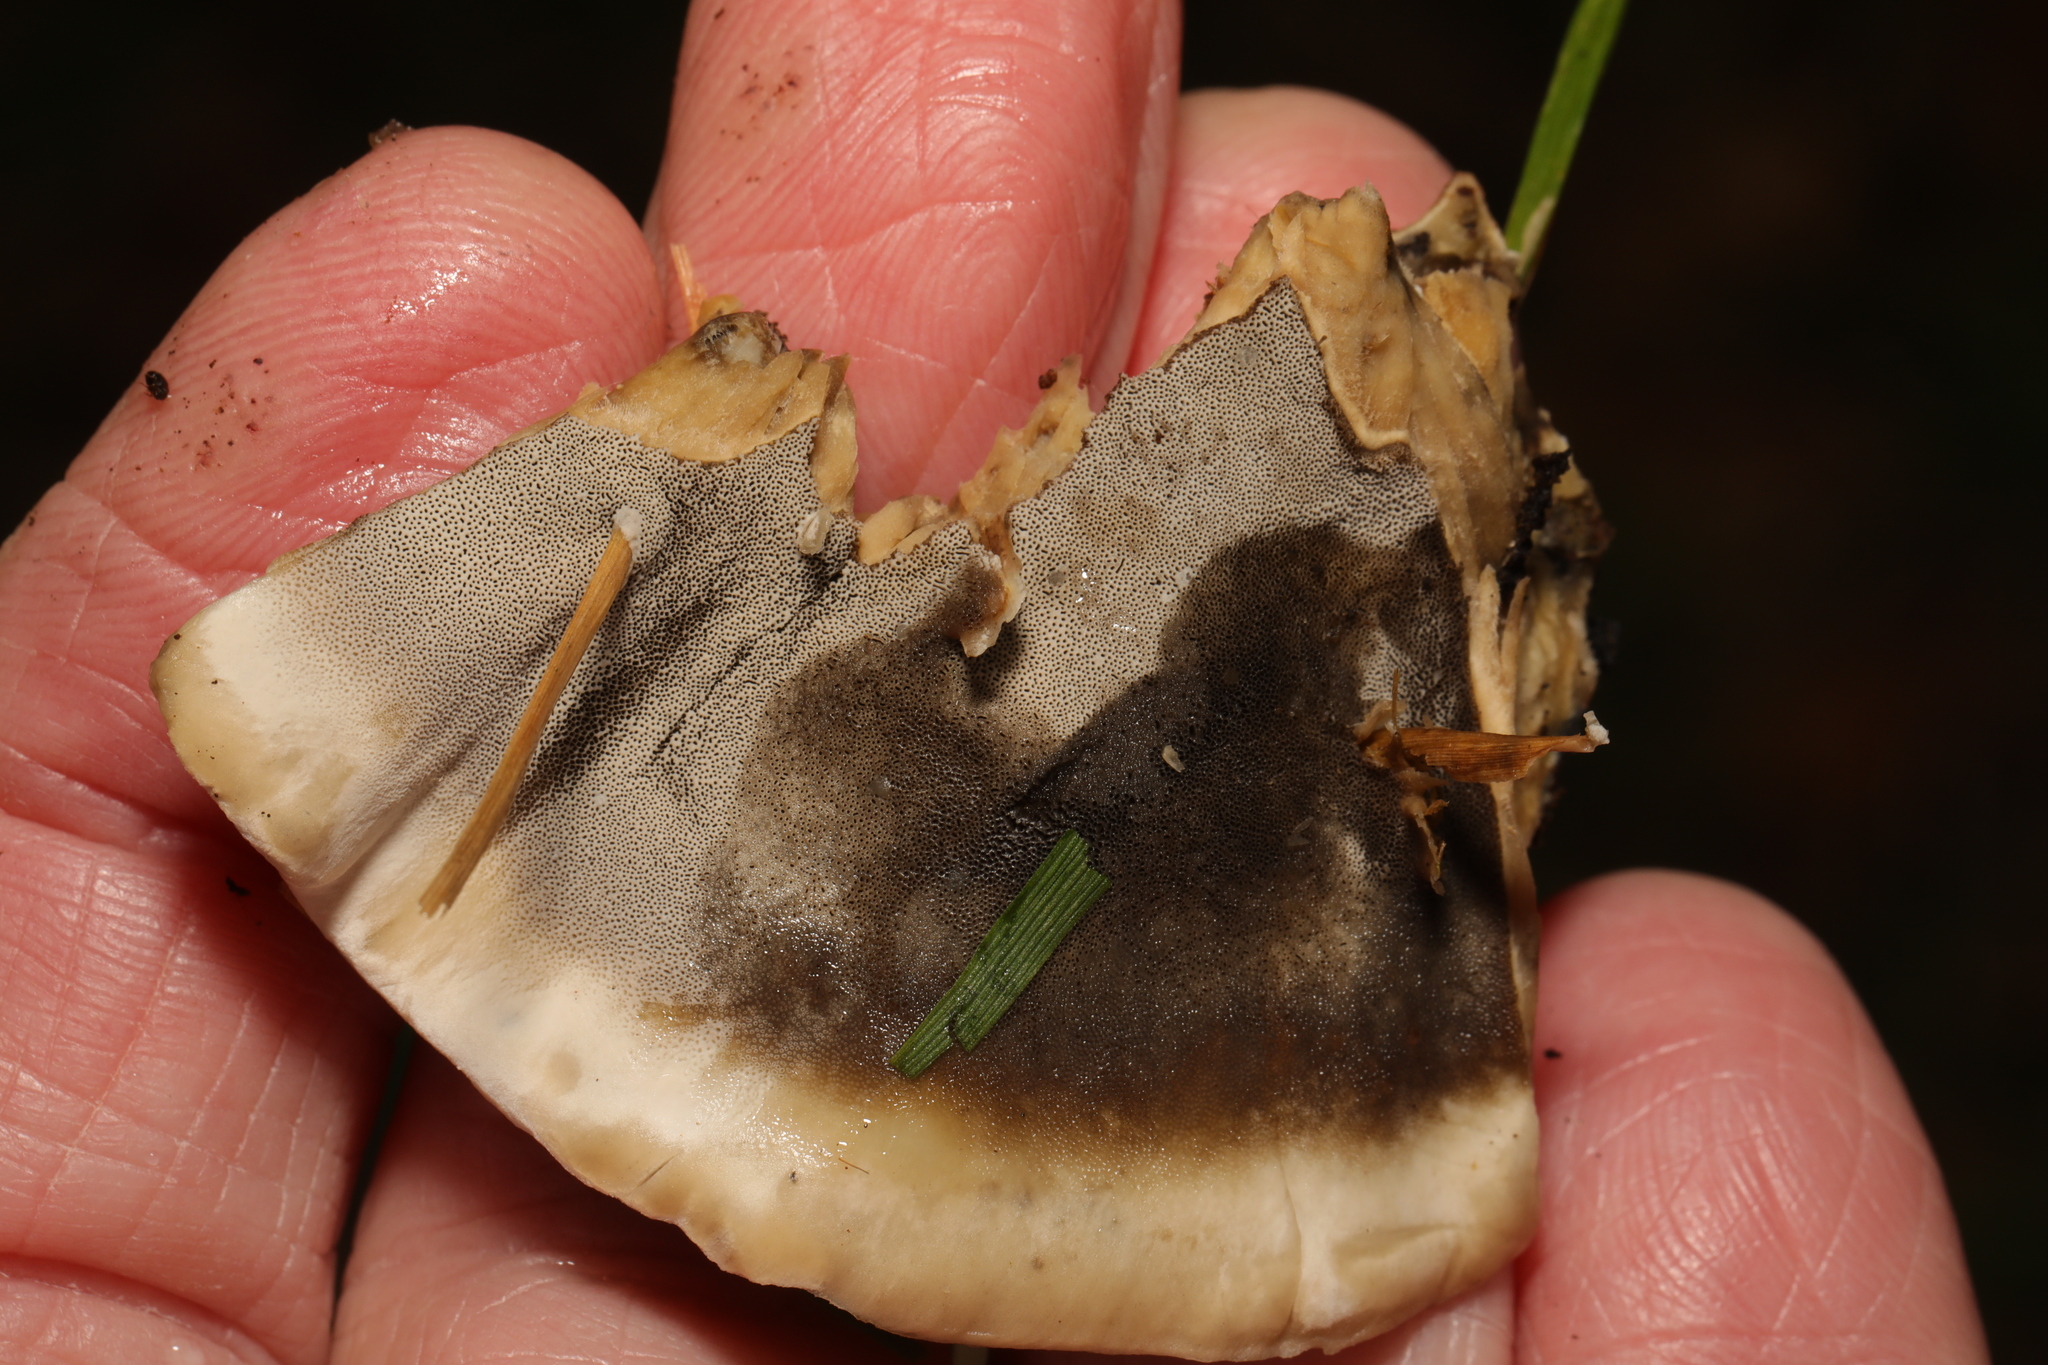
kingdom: Fungi
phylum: Basidiomycota
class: Agaricomycetes
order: Polyporales
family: Phanerochaetaceae
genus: Bjerkandera
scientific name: Bjerkandera adusta
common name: Smoky bracket
